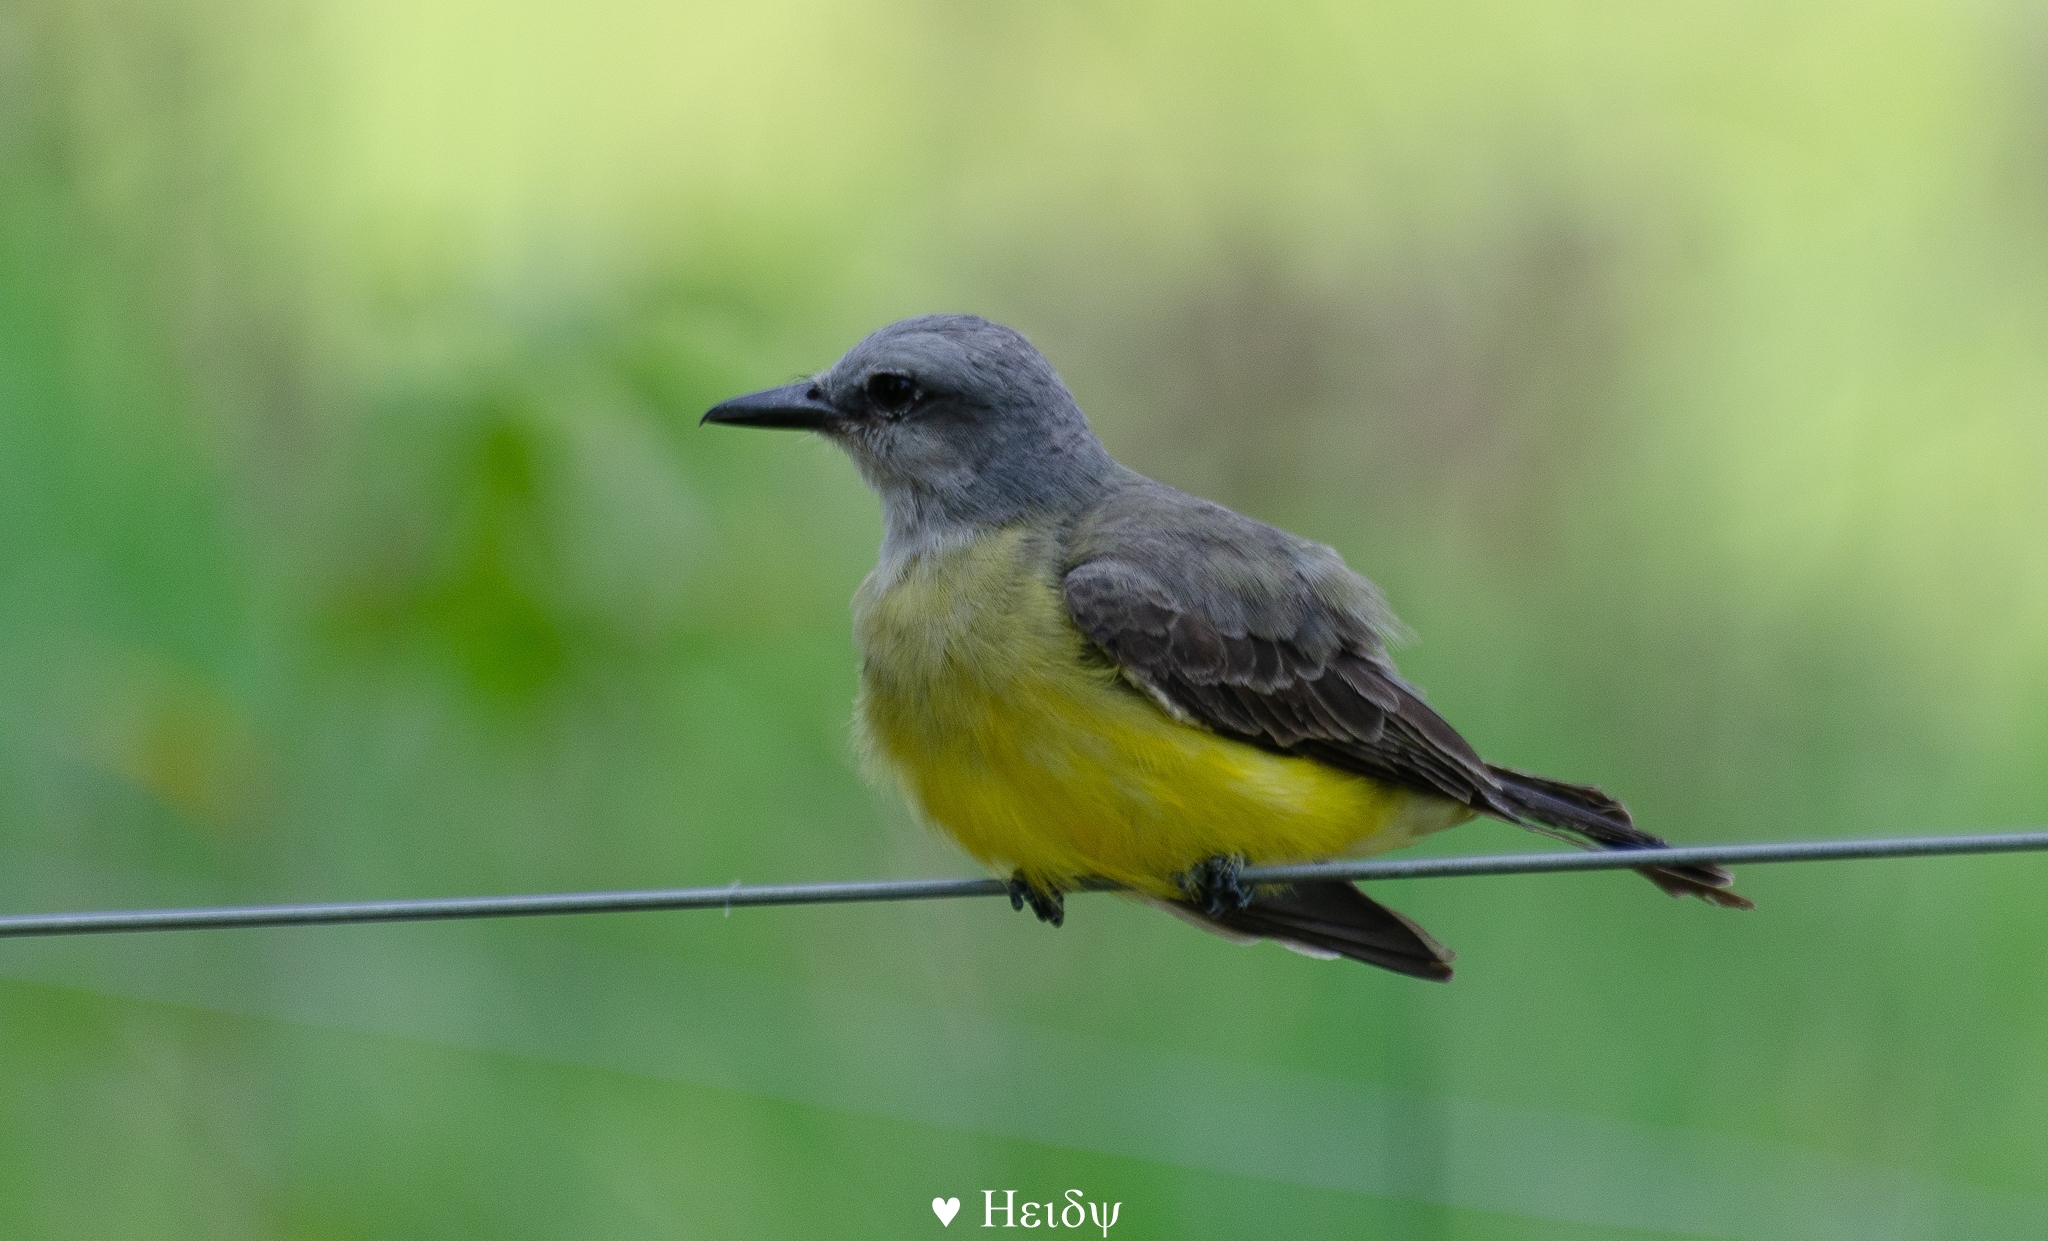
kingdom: Animalia
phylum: Chordata
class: Aves
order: Passeriformes
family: Tyrannidae
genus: Tyrannus
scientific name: Tyrannus melancholicus
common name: Tropical kingbird
